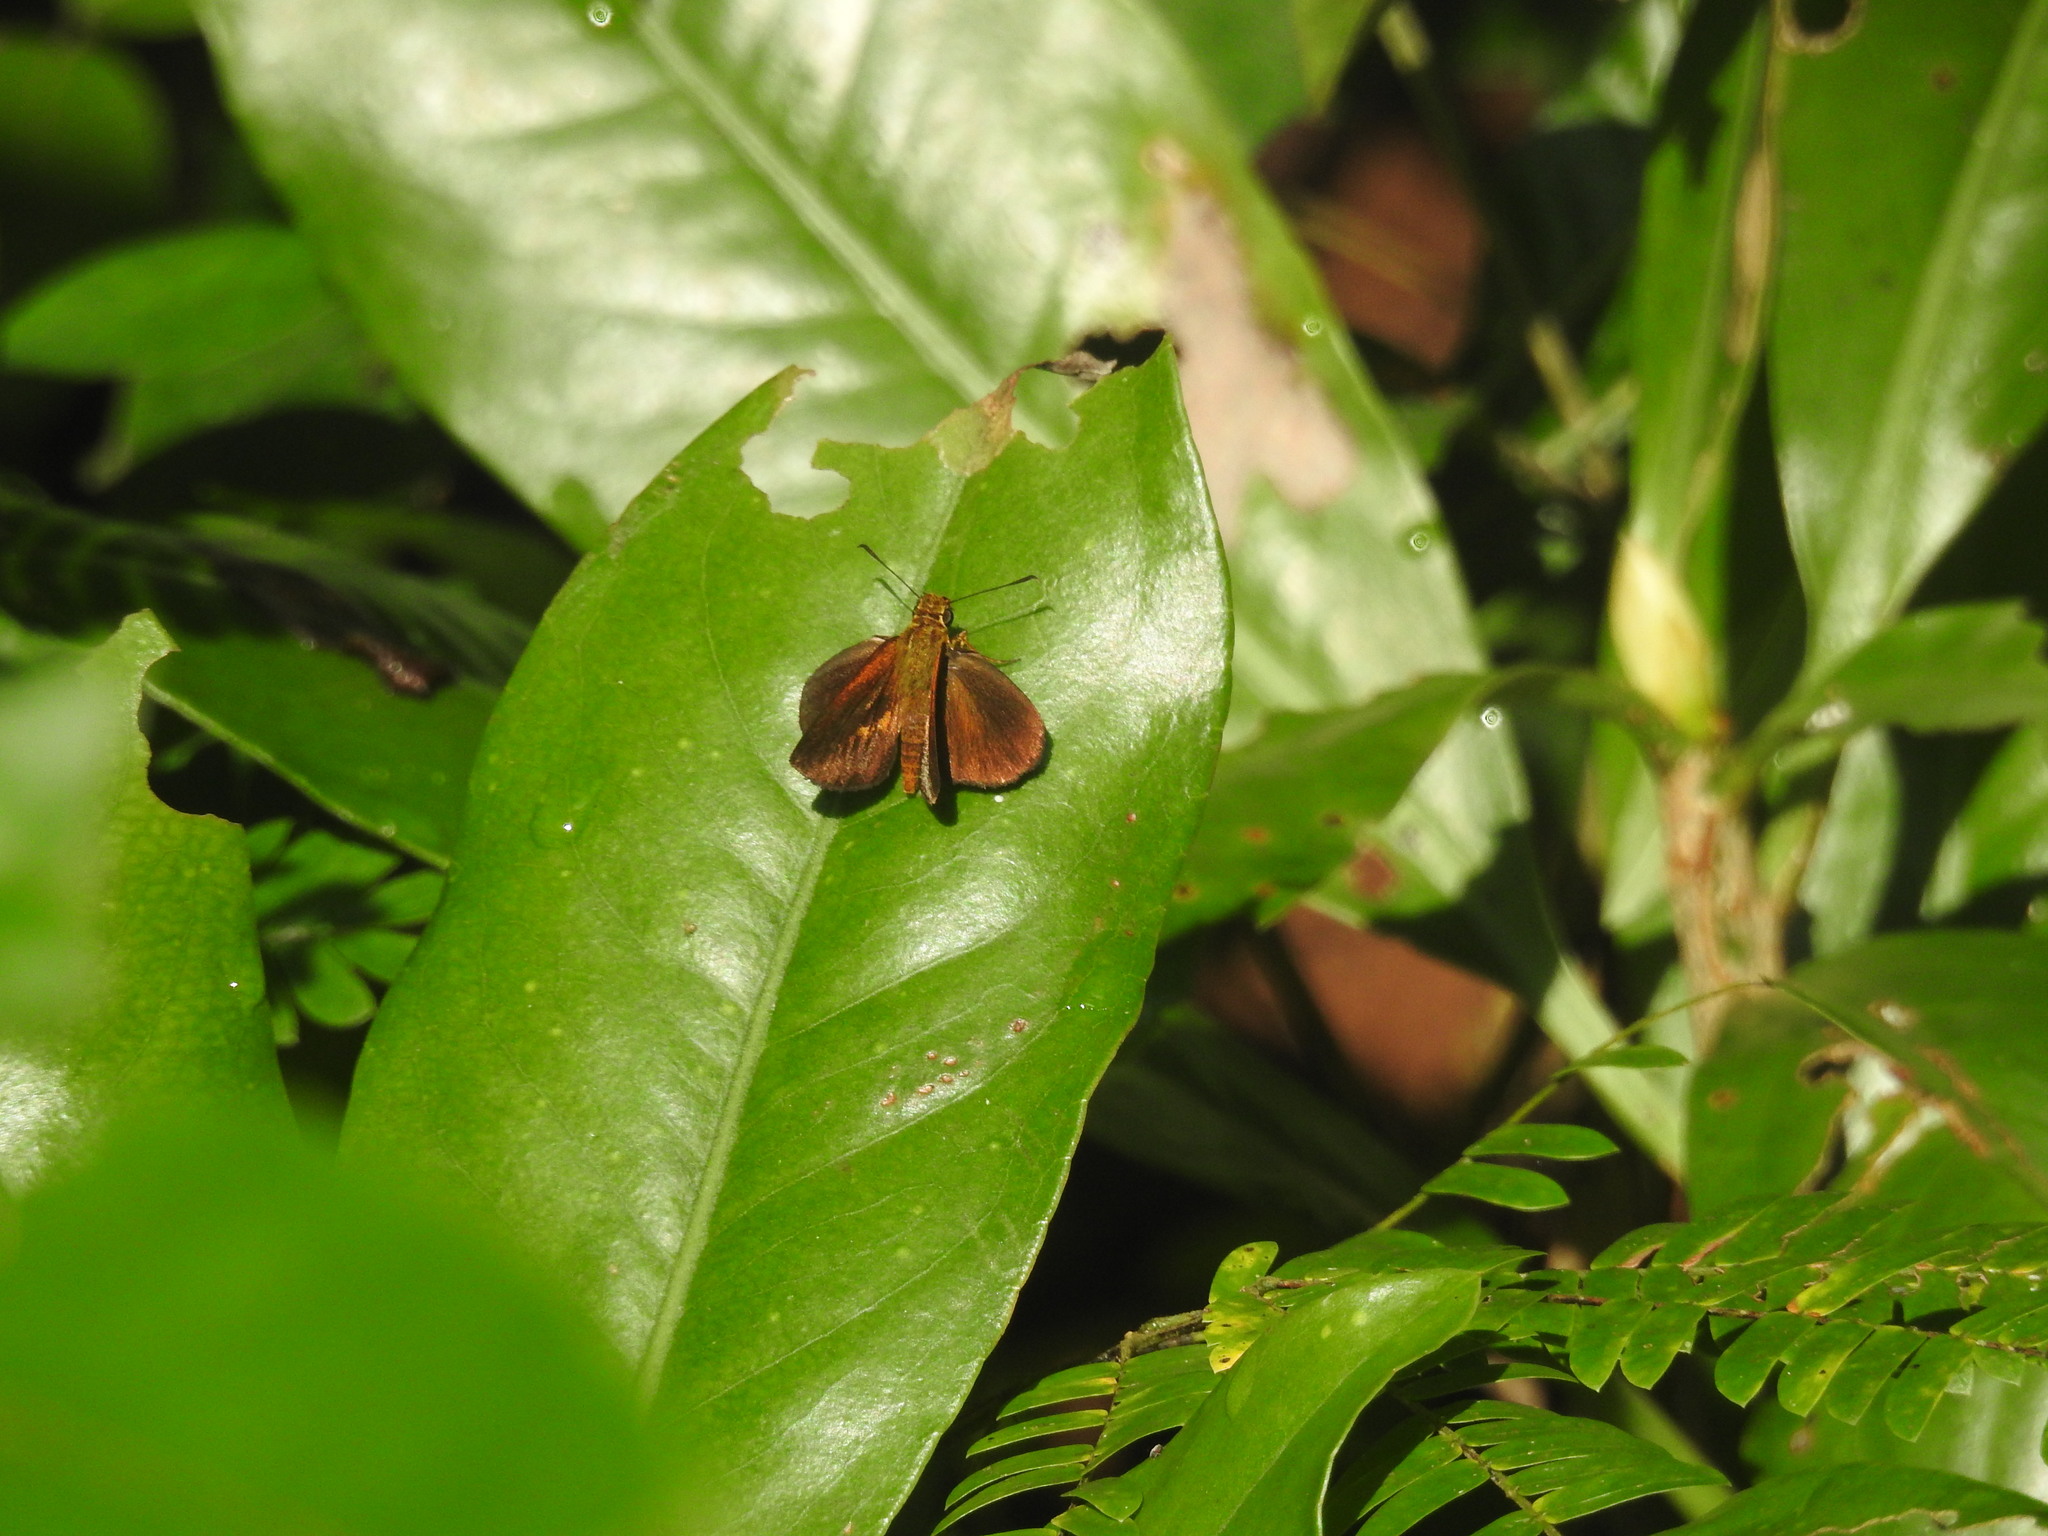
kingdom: Animalia
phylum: Arthropoda
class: Insecta
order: Lepidoptera
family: Hesperiidae
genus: Iambrix
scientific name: Iambrix salsala
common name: Chestnut bob
